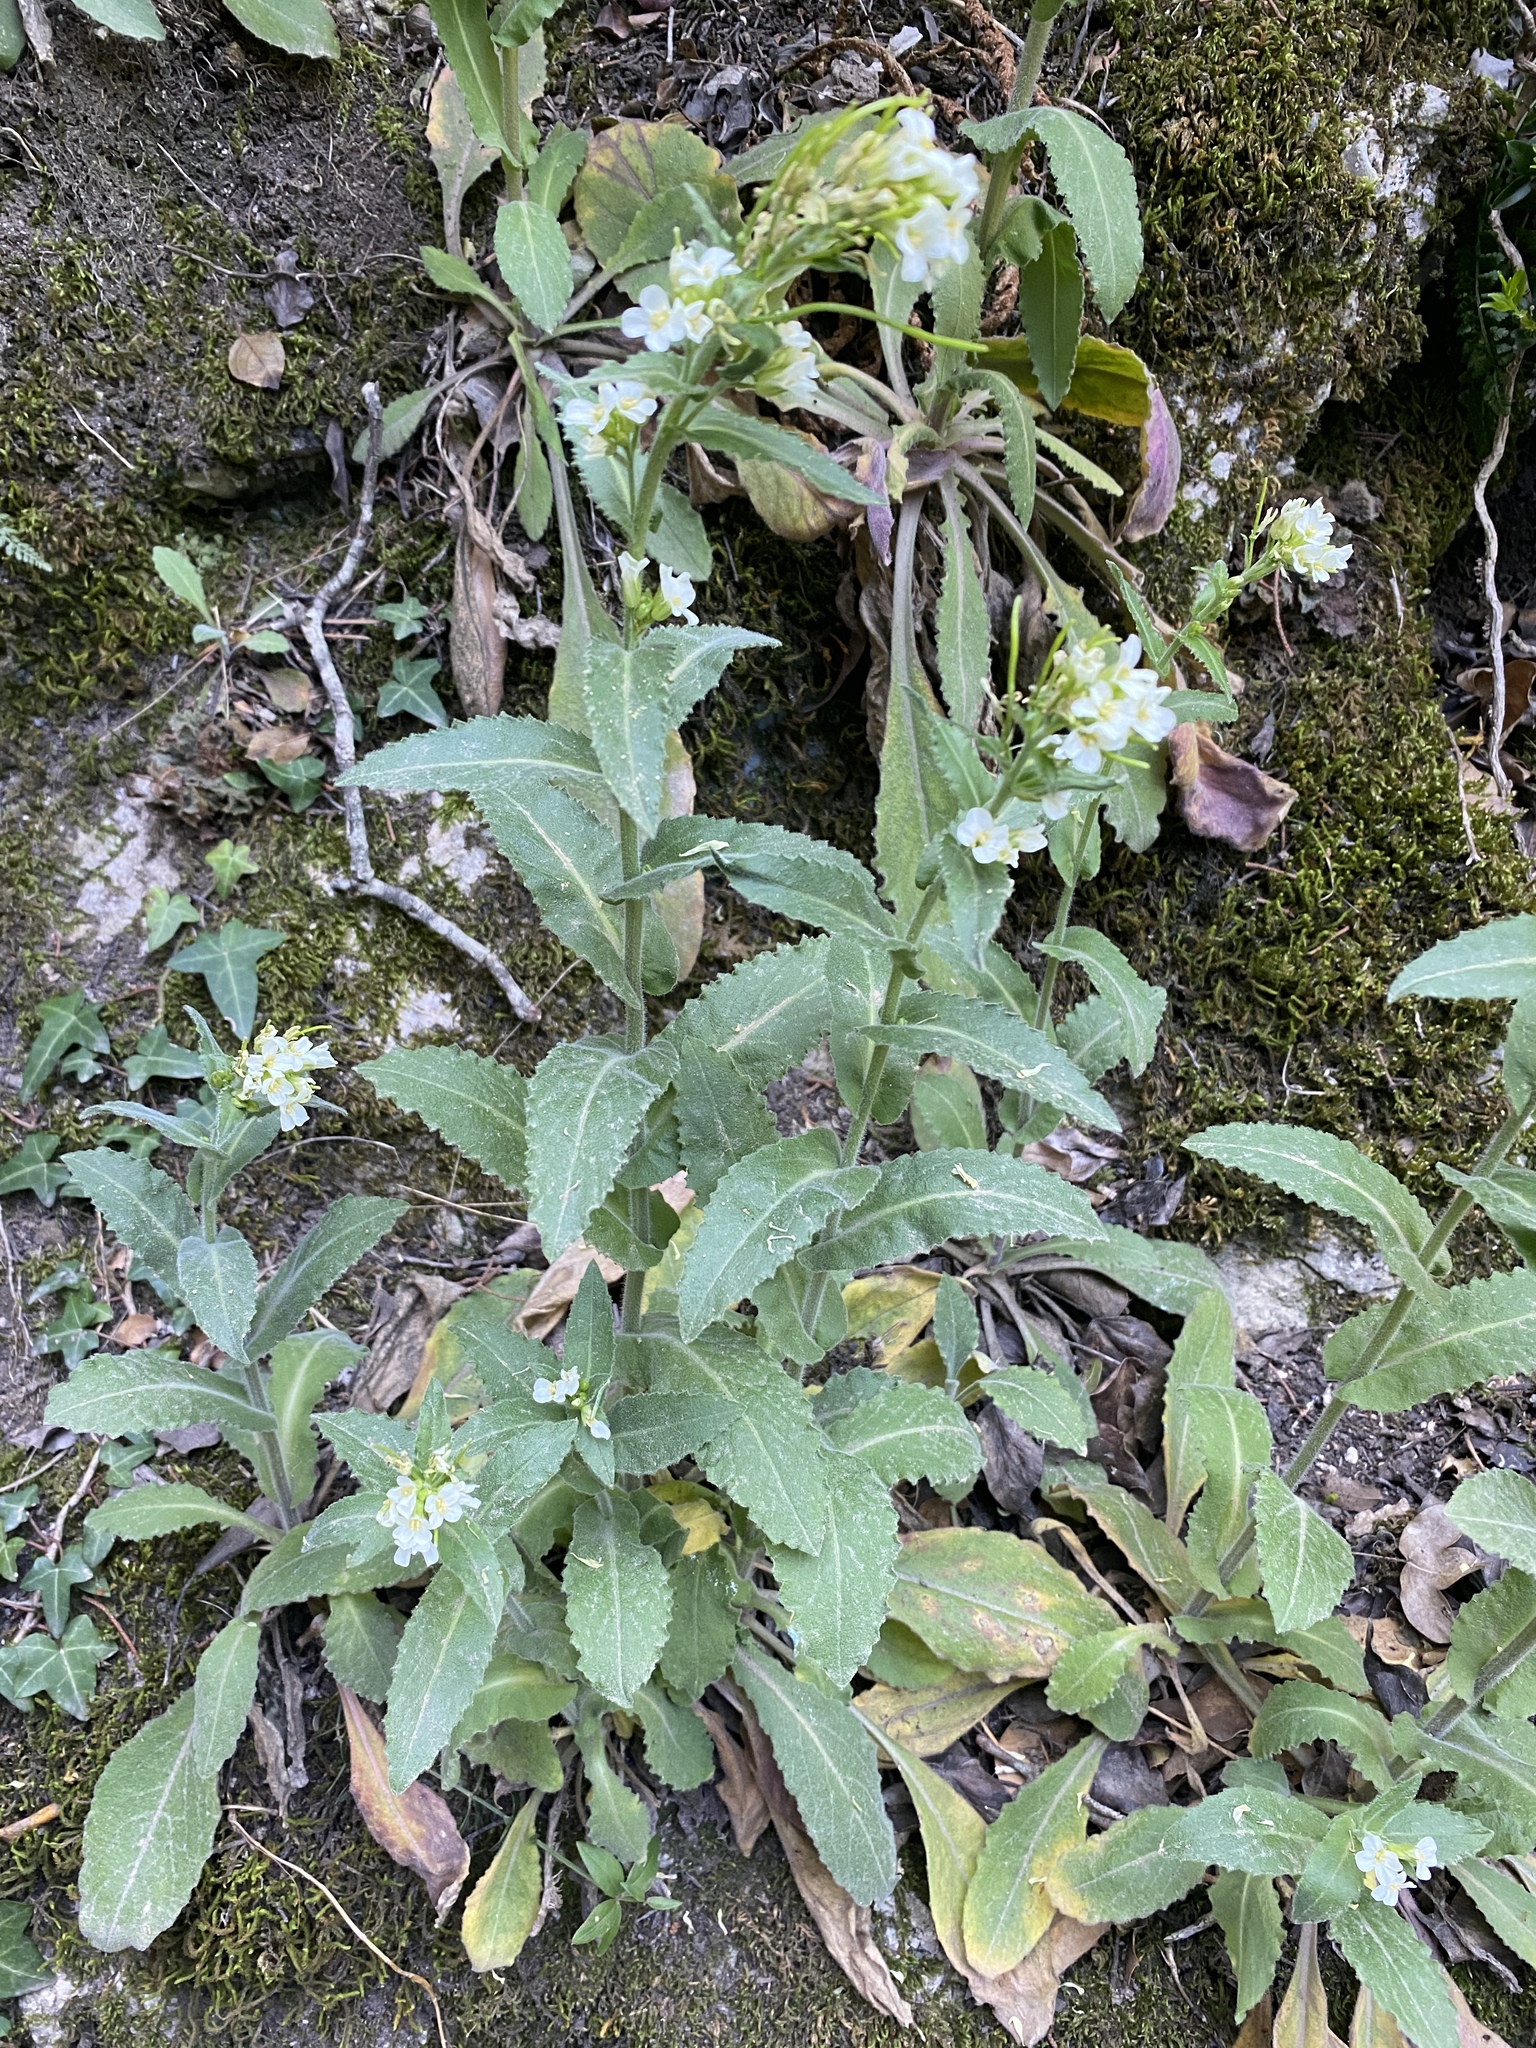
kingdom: Plantae
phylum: Tracheophyta
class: Magnoliopsida
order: Brassicales
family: Brassicaceae
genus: Pseudoturritis
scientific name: Pseudoturritis turrita
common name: Tower cress
